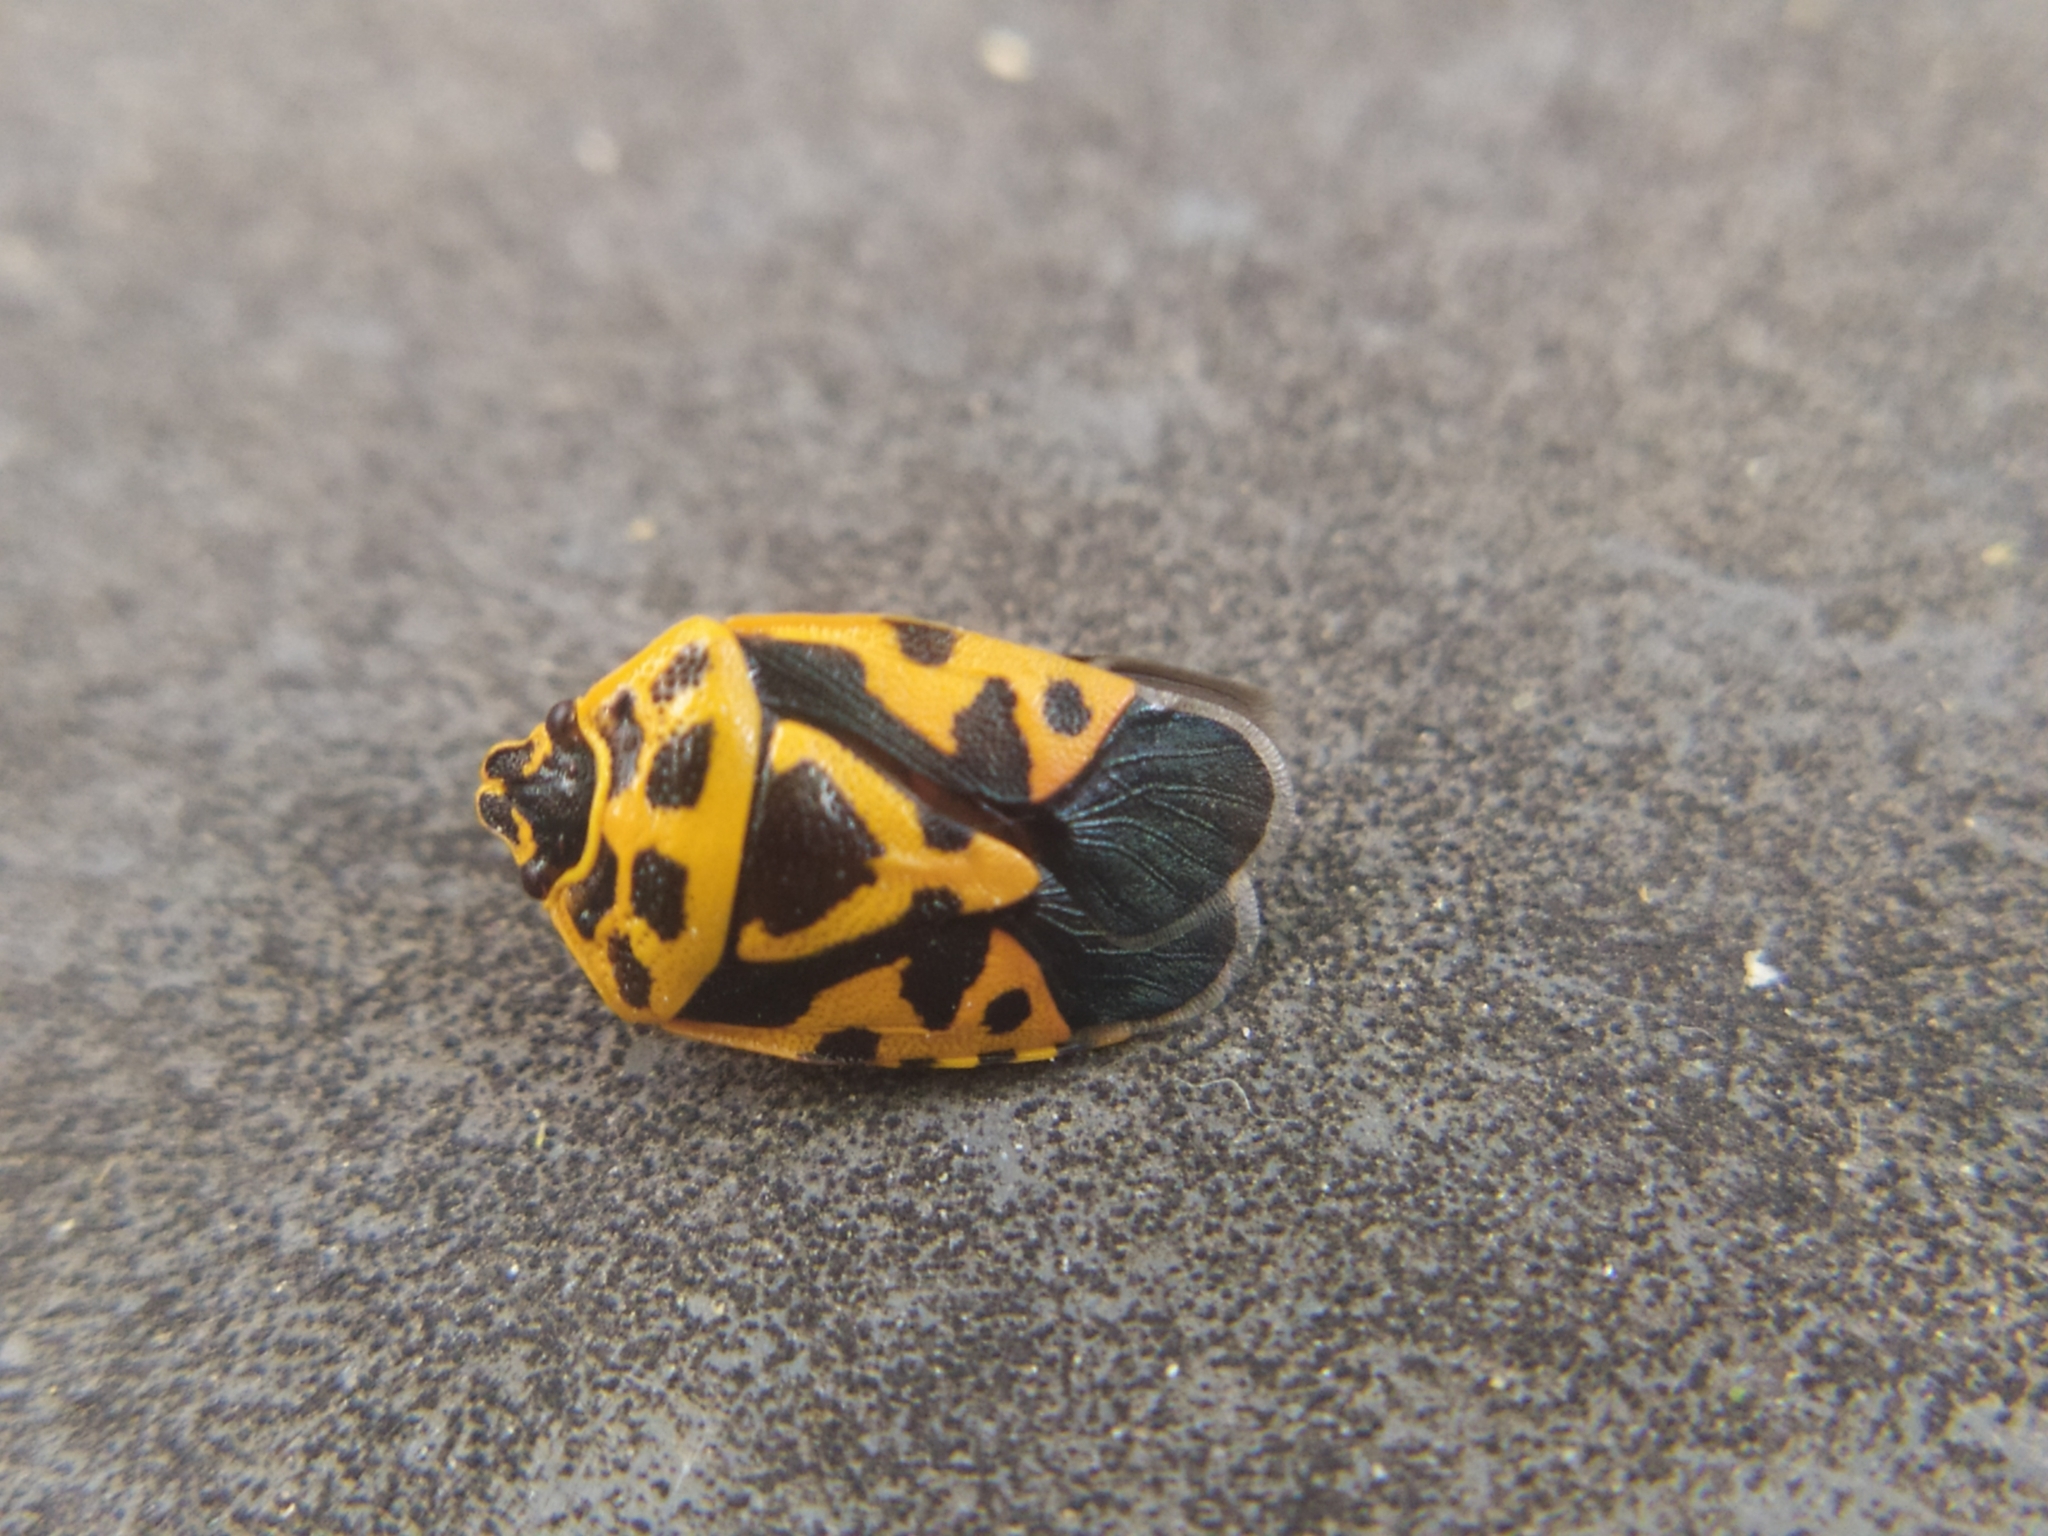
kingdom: Animalia
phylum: Arthropoda
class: Insecta
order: Hemiptera
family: Pentatomidae
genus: Eurydema
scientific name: Eurydema ventralis
